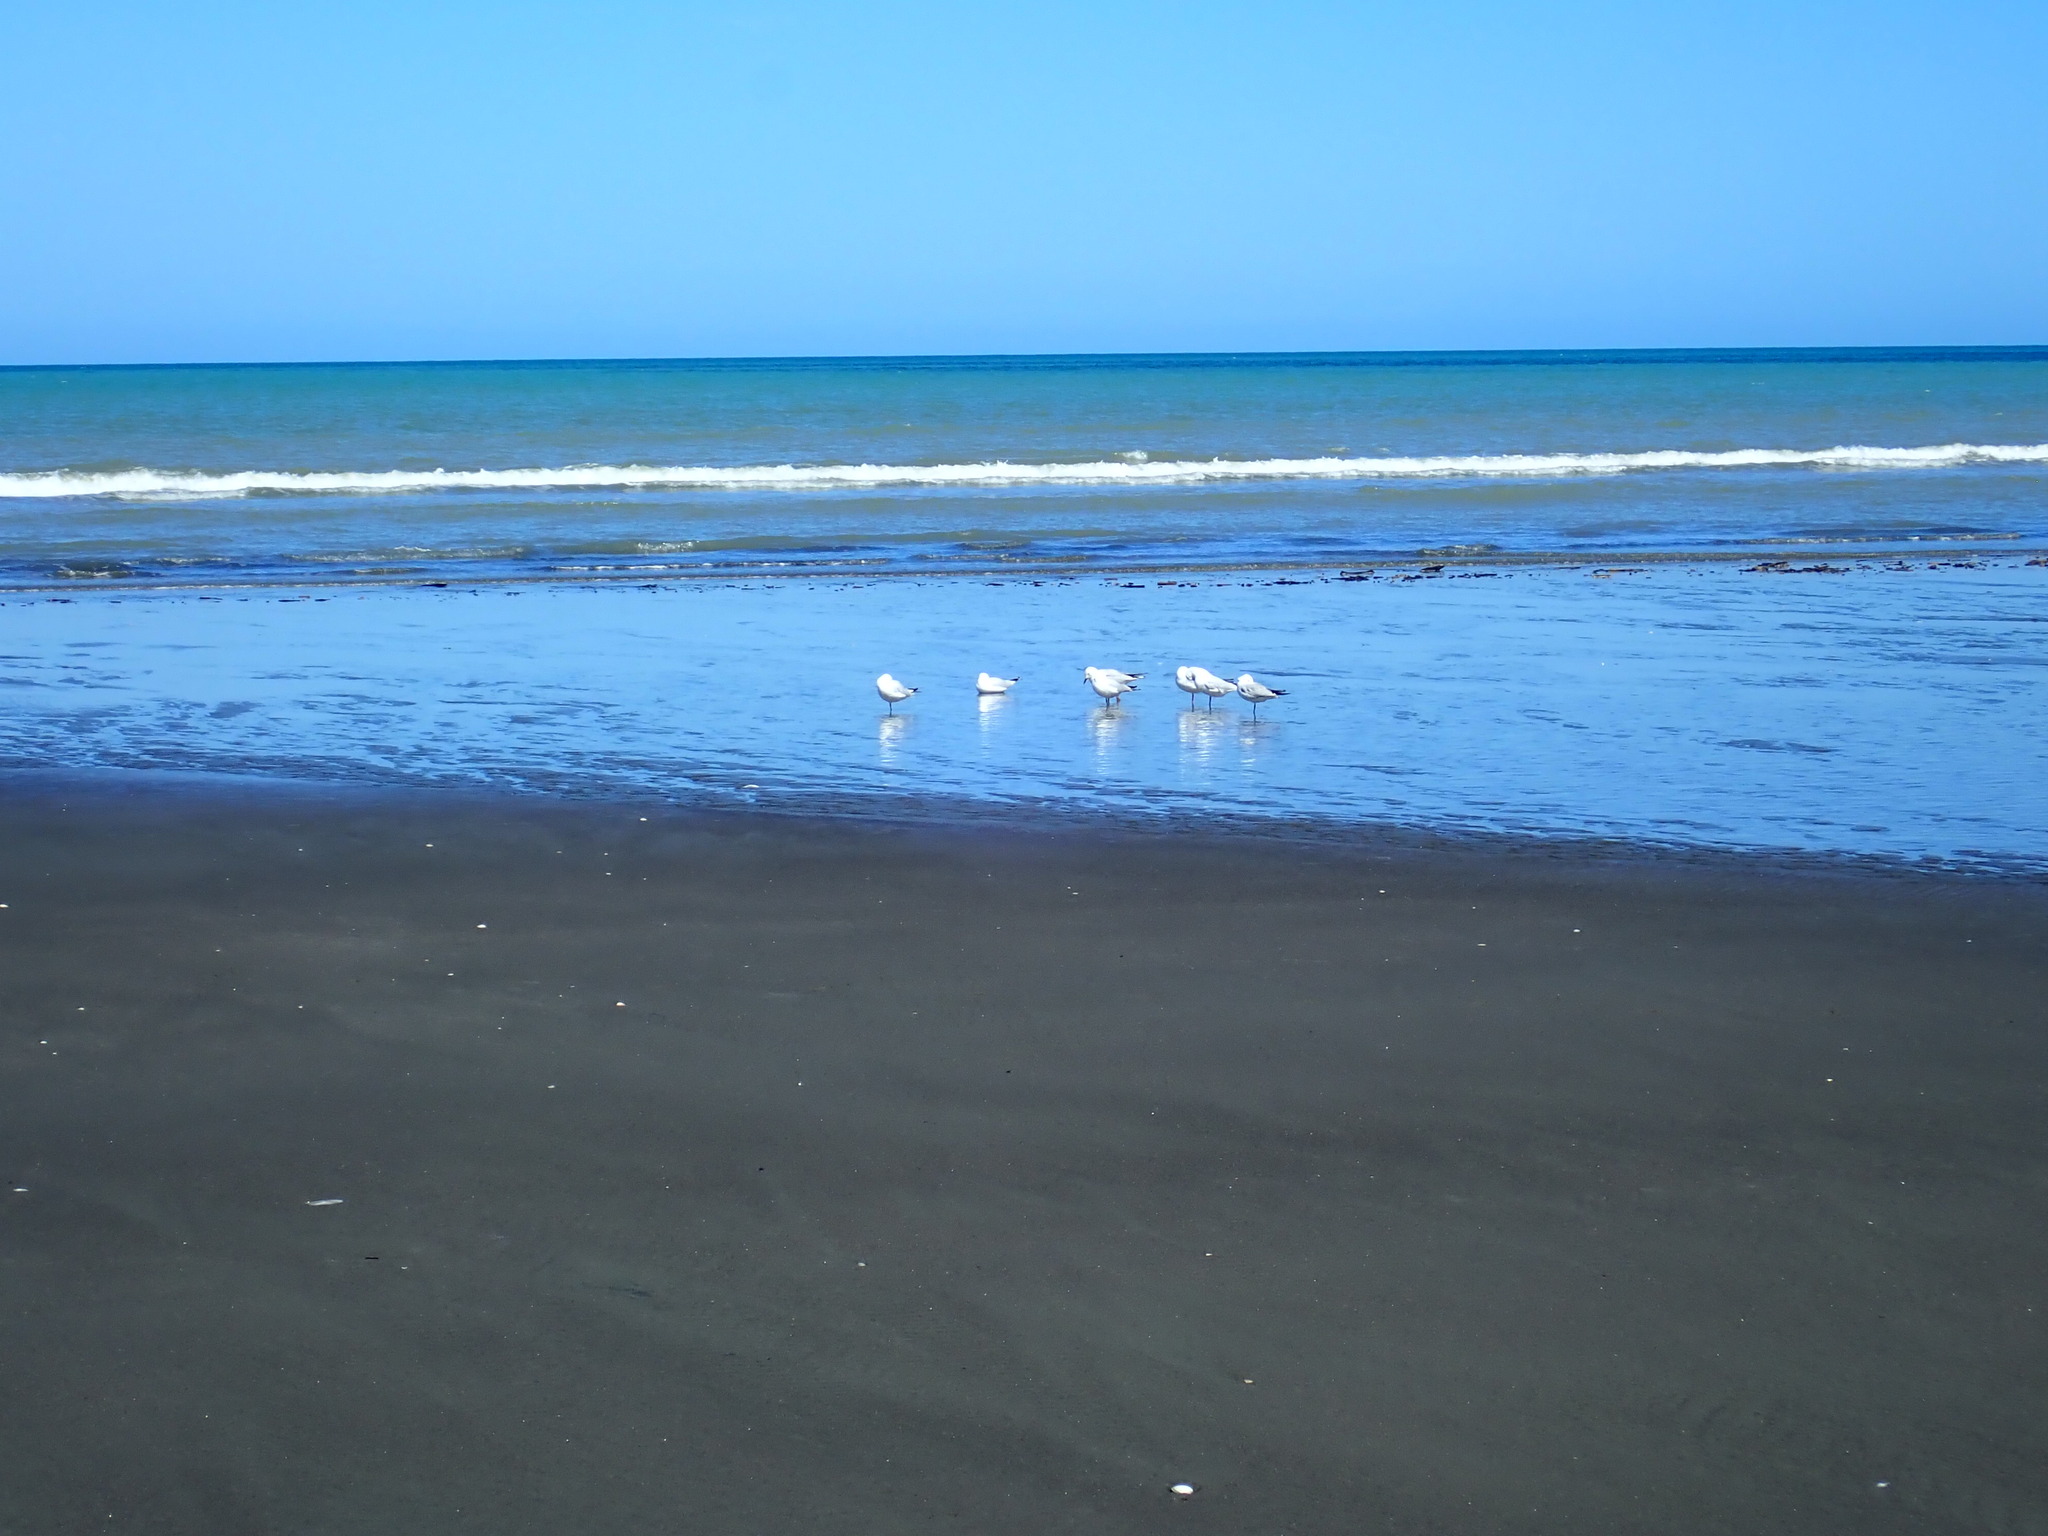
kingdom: Animalia
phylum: Chordata
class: Aves
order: Charadriiformes
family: Laridae
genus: Chroicocephalus
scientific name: Chroicocephalus bulleri
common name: Black-billed gull
